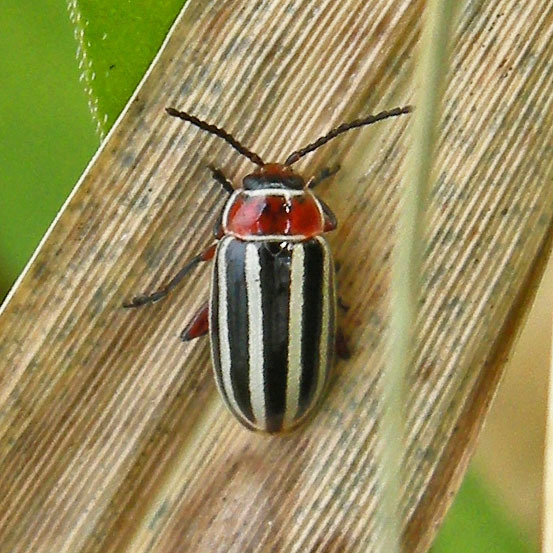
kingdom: Animalia
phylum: Arthropoda
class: Insecta
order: Coleoptera
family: Chrysomelidae
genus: Disonycha
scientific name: Disonycha procera
